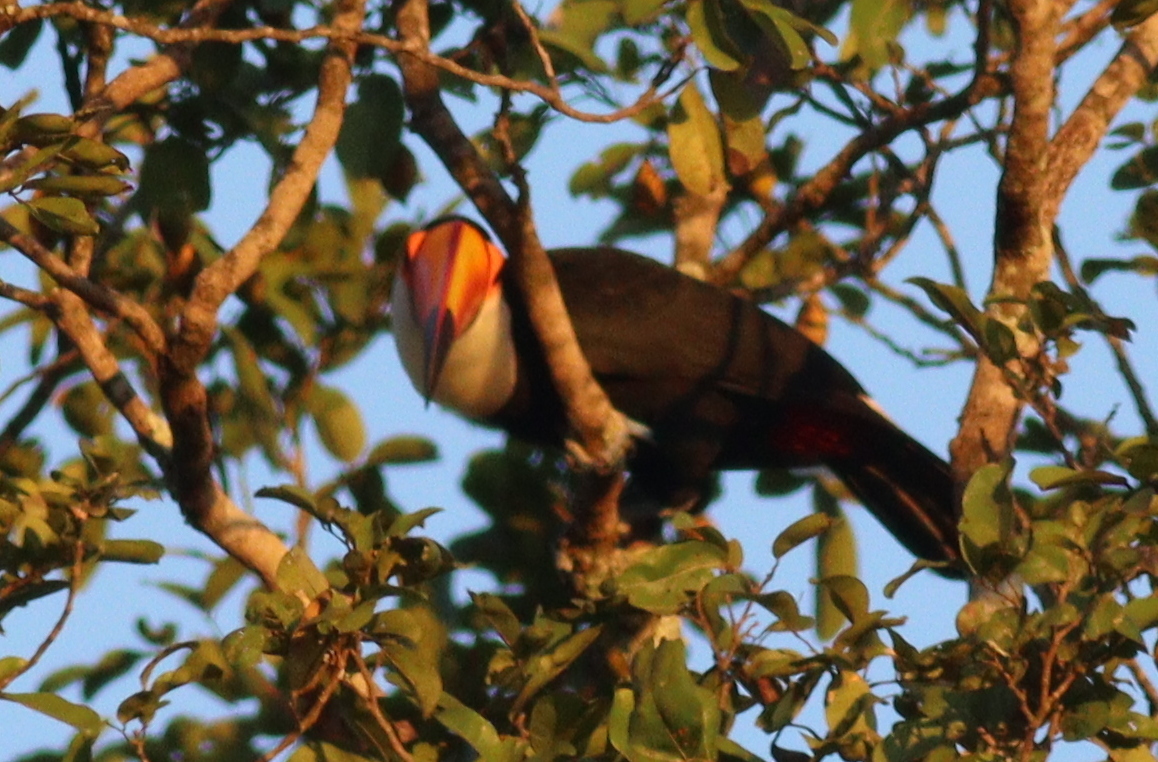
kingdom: Animalia
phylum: Chordata
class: Aves
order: Piciformes
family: Ramphastidae
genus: Ramphastos
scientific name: Ramphastos toco
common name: Toco toucan
